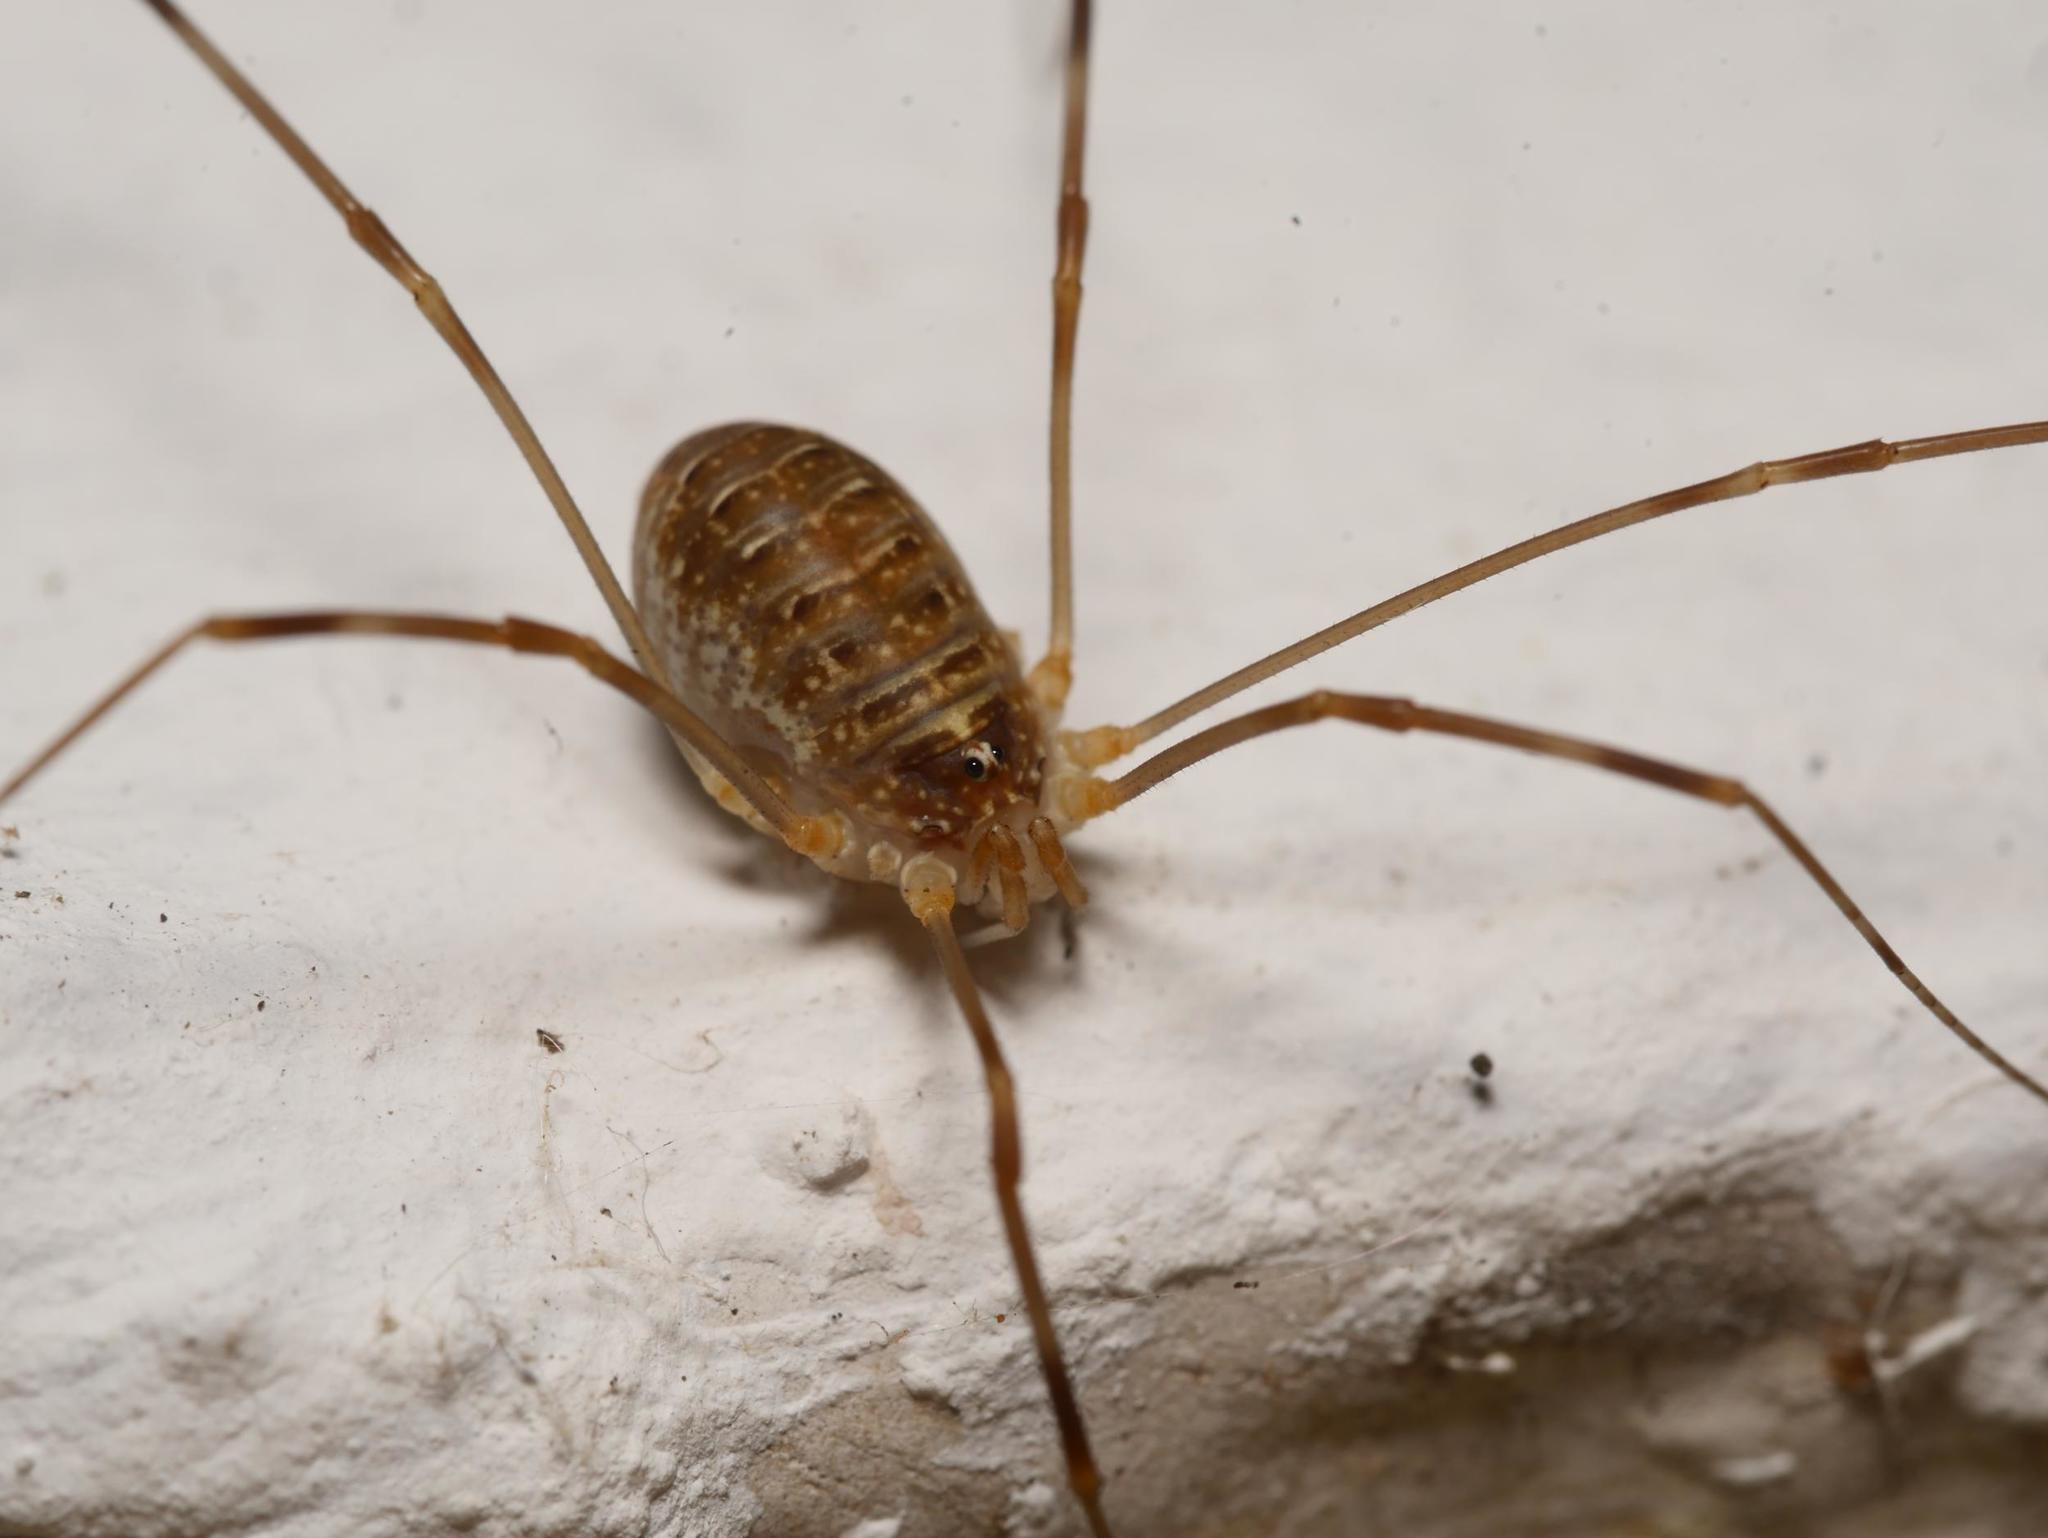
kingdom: Animalia
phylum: Arthropoda
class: Arachnida
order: Opiliones
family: Phalangiidae
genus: Opilio
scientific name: Opilio canestrinii
